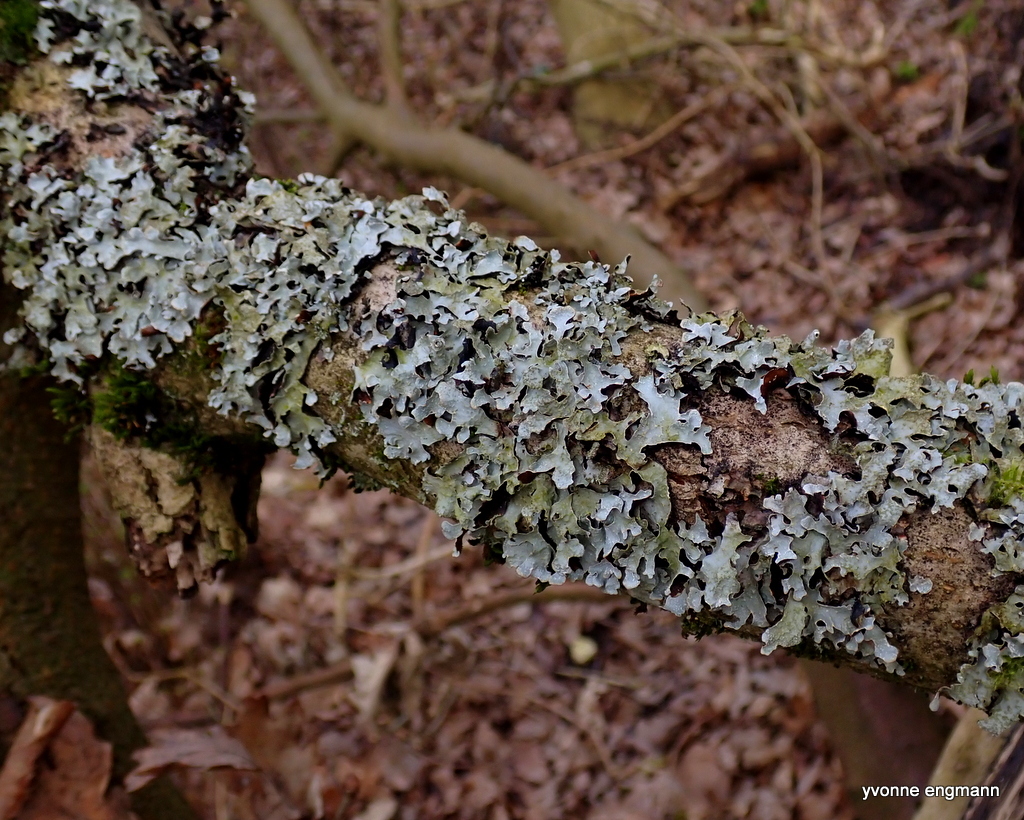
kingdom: Fungi
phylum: Ascomycota
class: Lecanoromycetes
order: Lecanorales
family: Parmeliaceae
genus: Parmelia
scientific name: Parmelia sulcata
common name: Netted shield lichen
